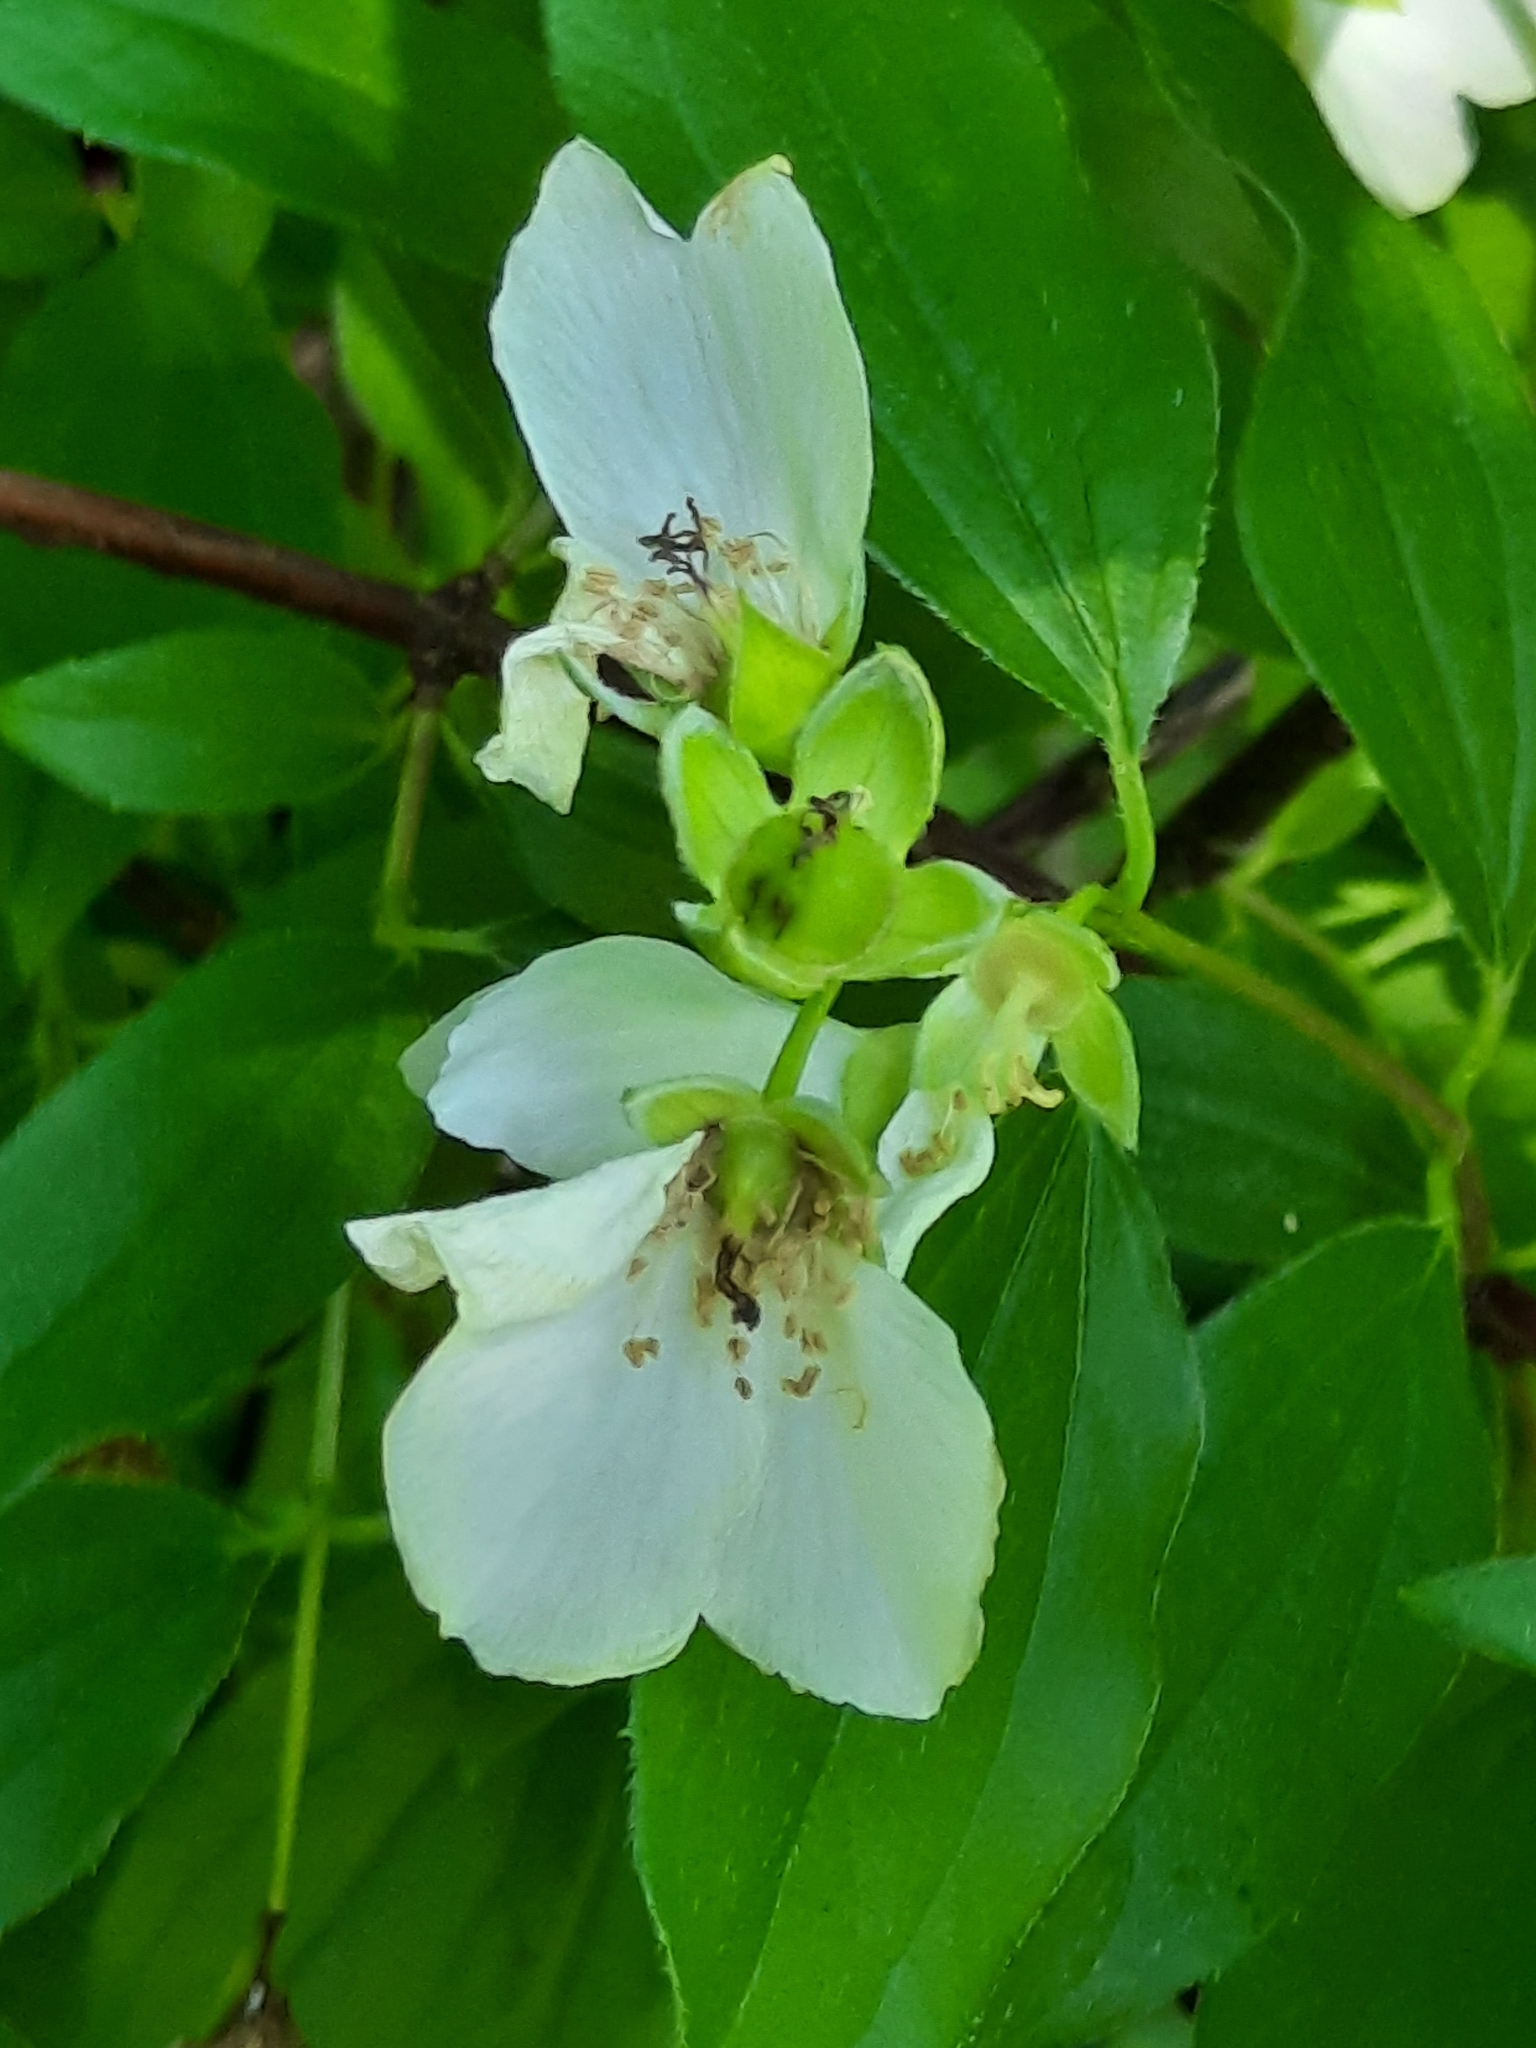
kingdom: Plantae
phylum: Tracheophyta
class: Magnoliopsida
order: Cornales
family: Hydrangeaceae
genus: Philadelphus
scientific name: Philadelphus coronarius
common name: Mock orange
